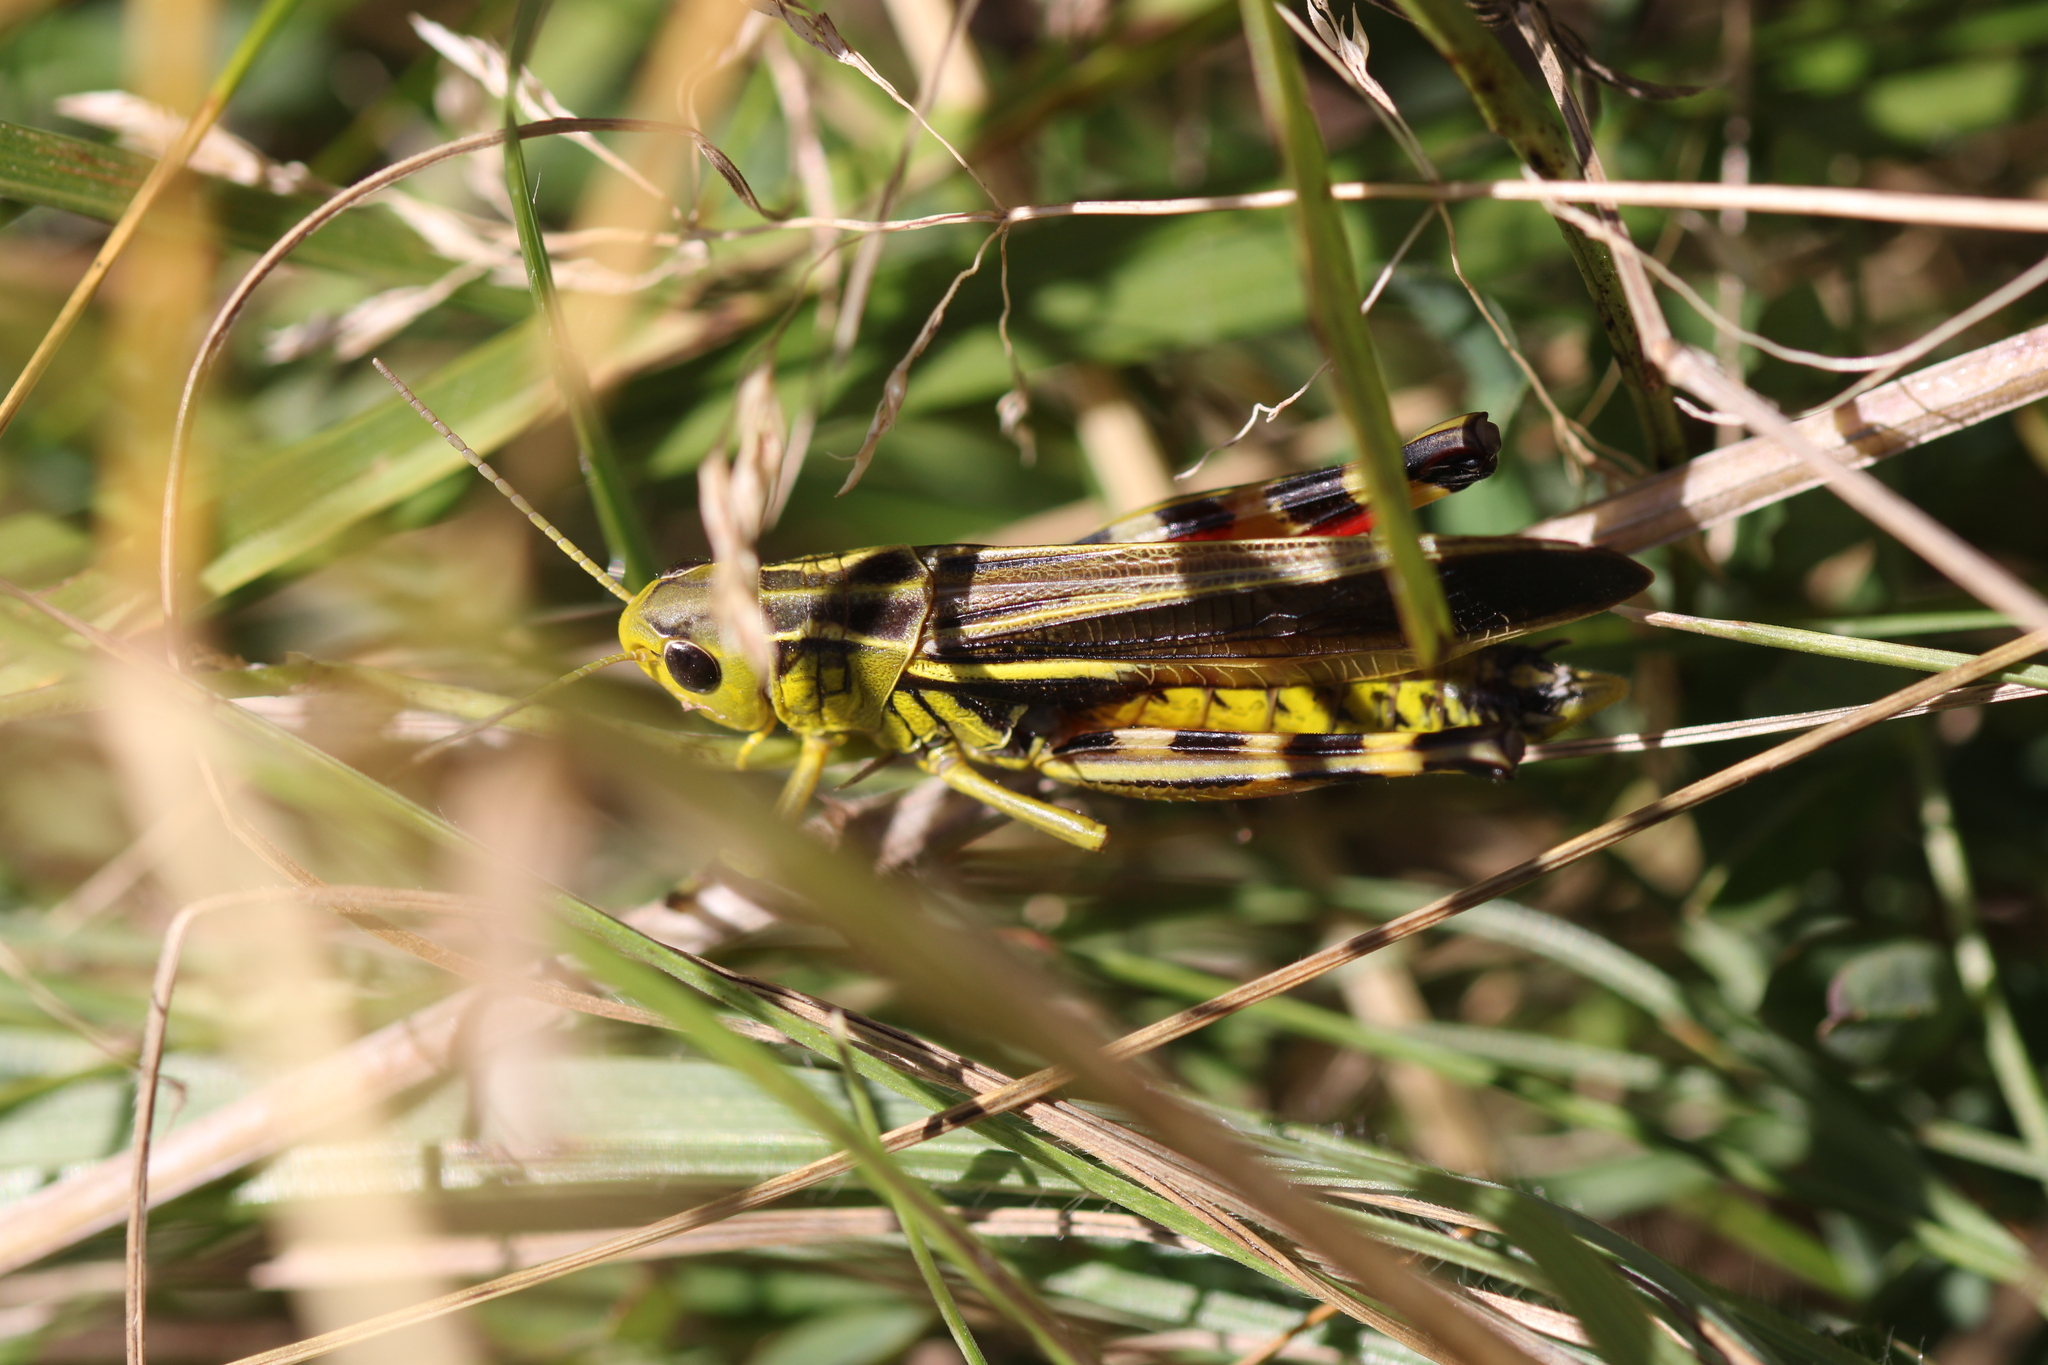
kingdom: Animalia
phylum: Arthropoda
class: Insecta
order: Orthoptera
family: Acrididae
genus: Arcyptera
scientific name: Arcyptera fusca
